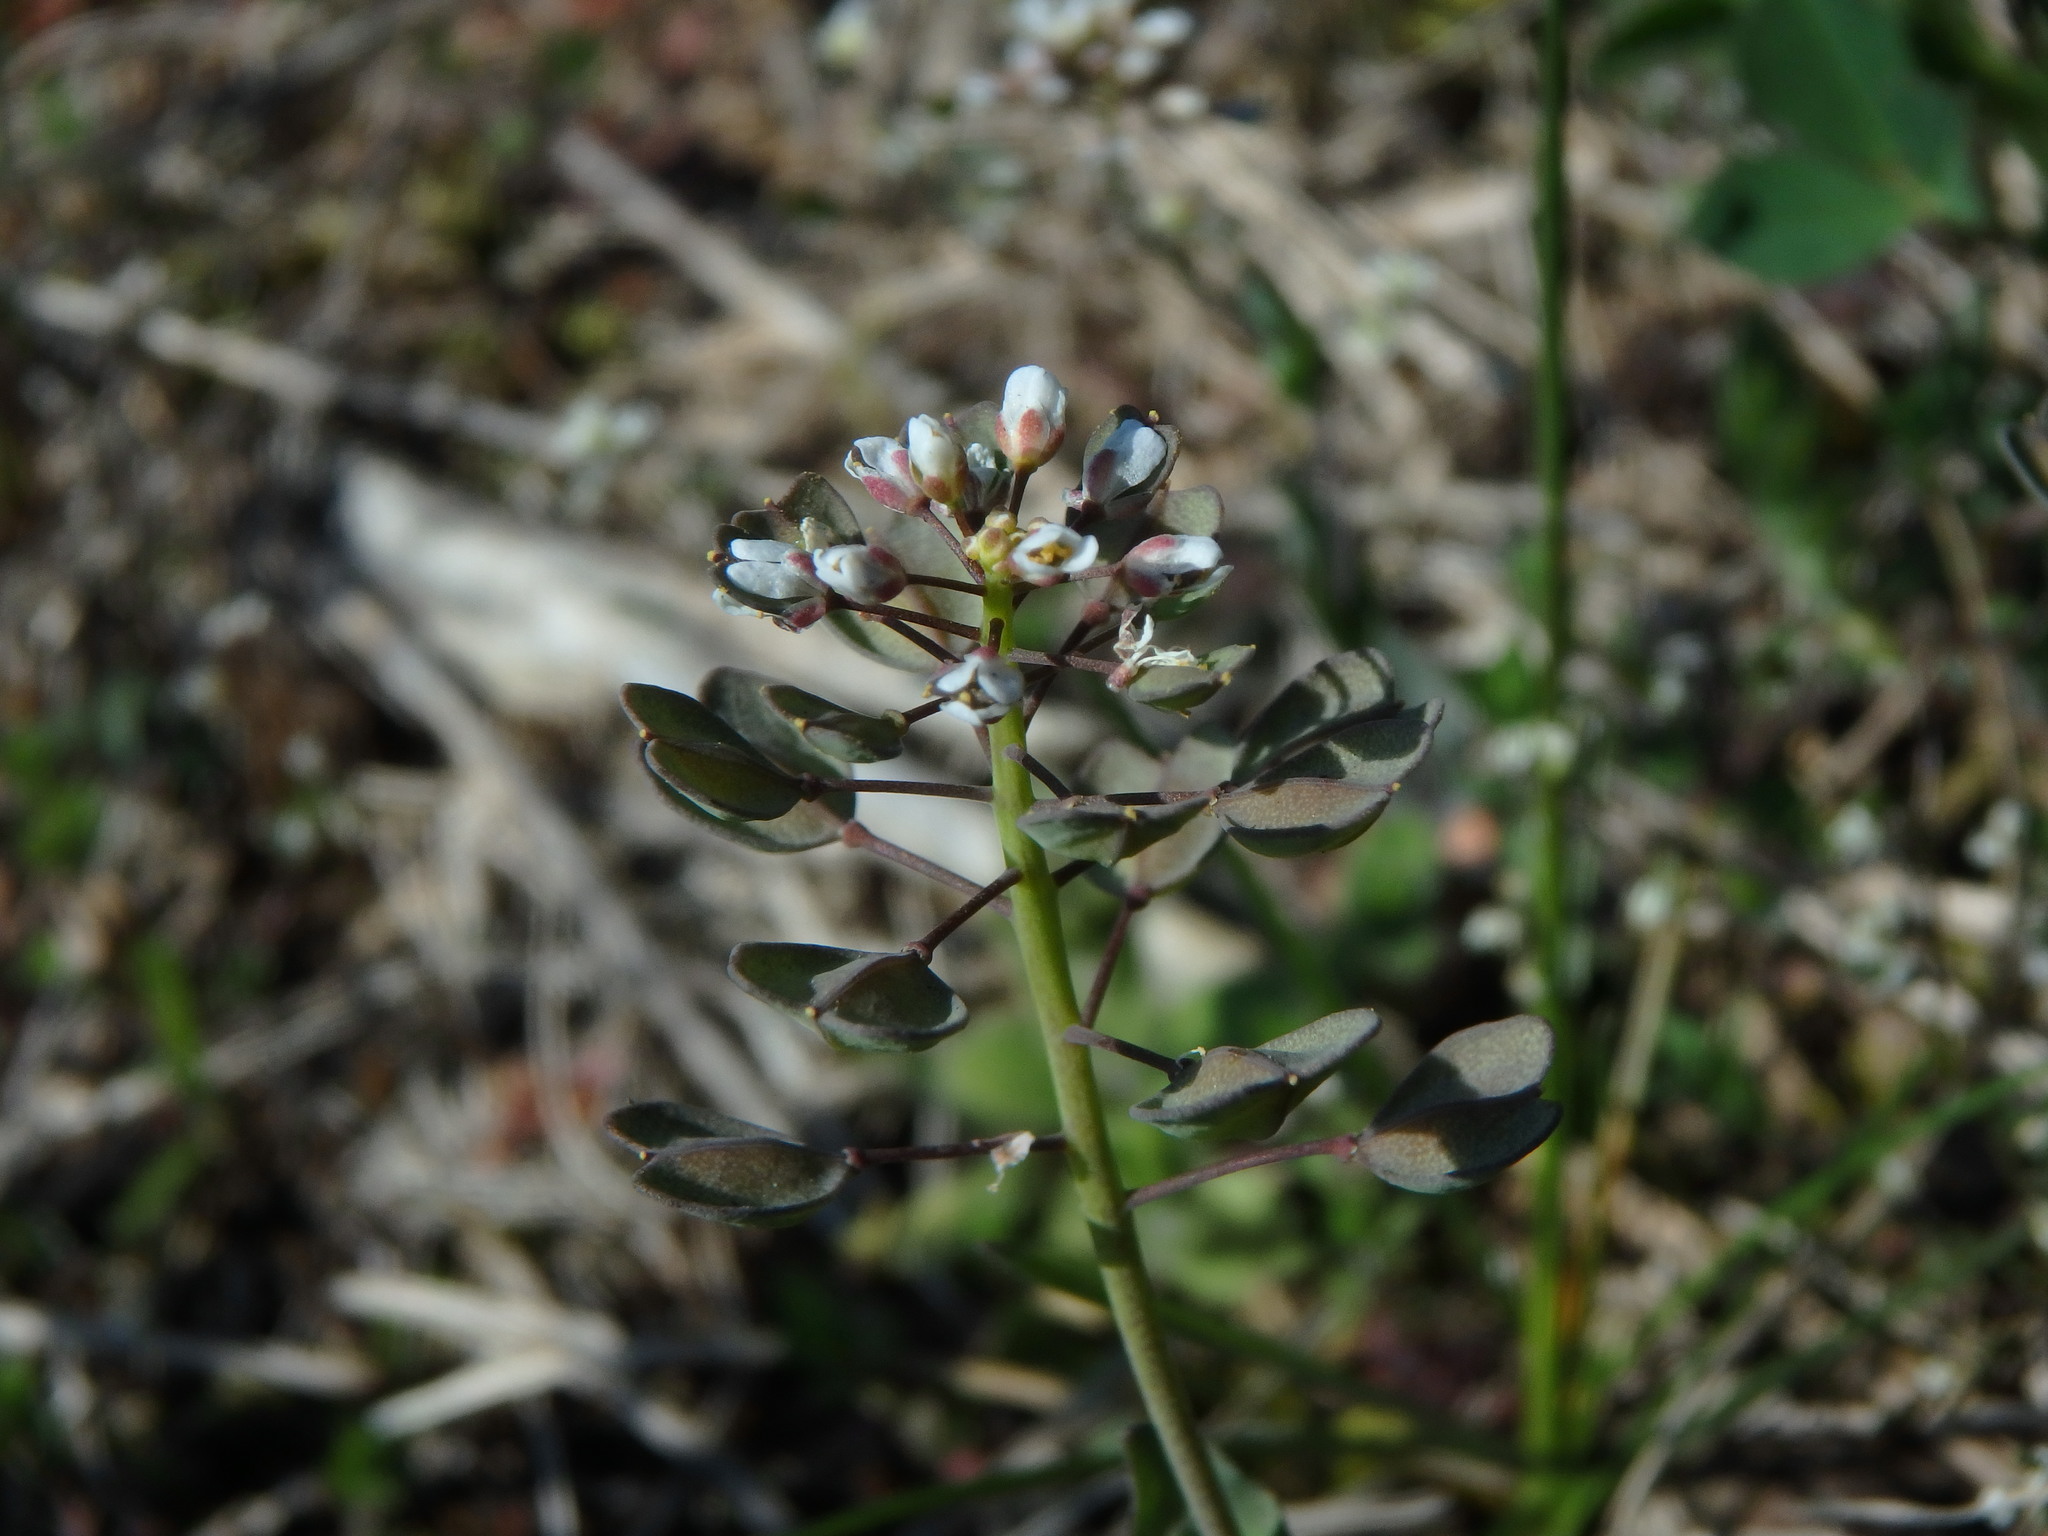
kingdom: Plantae
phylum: Tracheophyta
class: Magnoliopsida
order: Brassicales
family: Brassicaceae
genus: Noccaea
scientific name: Noccaea perfoliata
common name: Perfoliate pennycress
